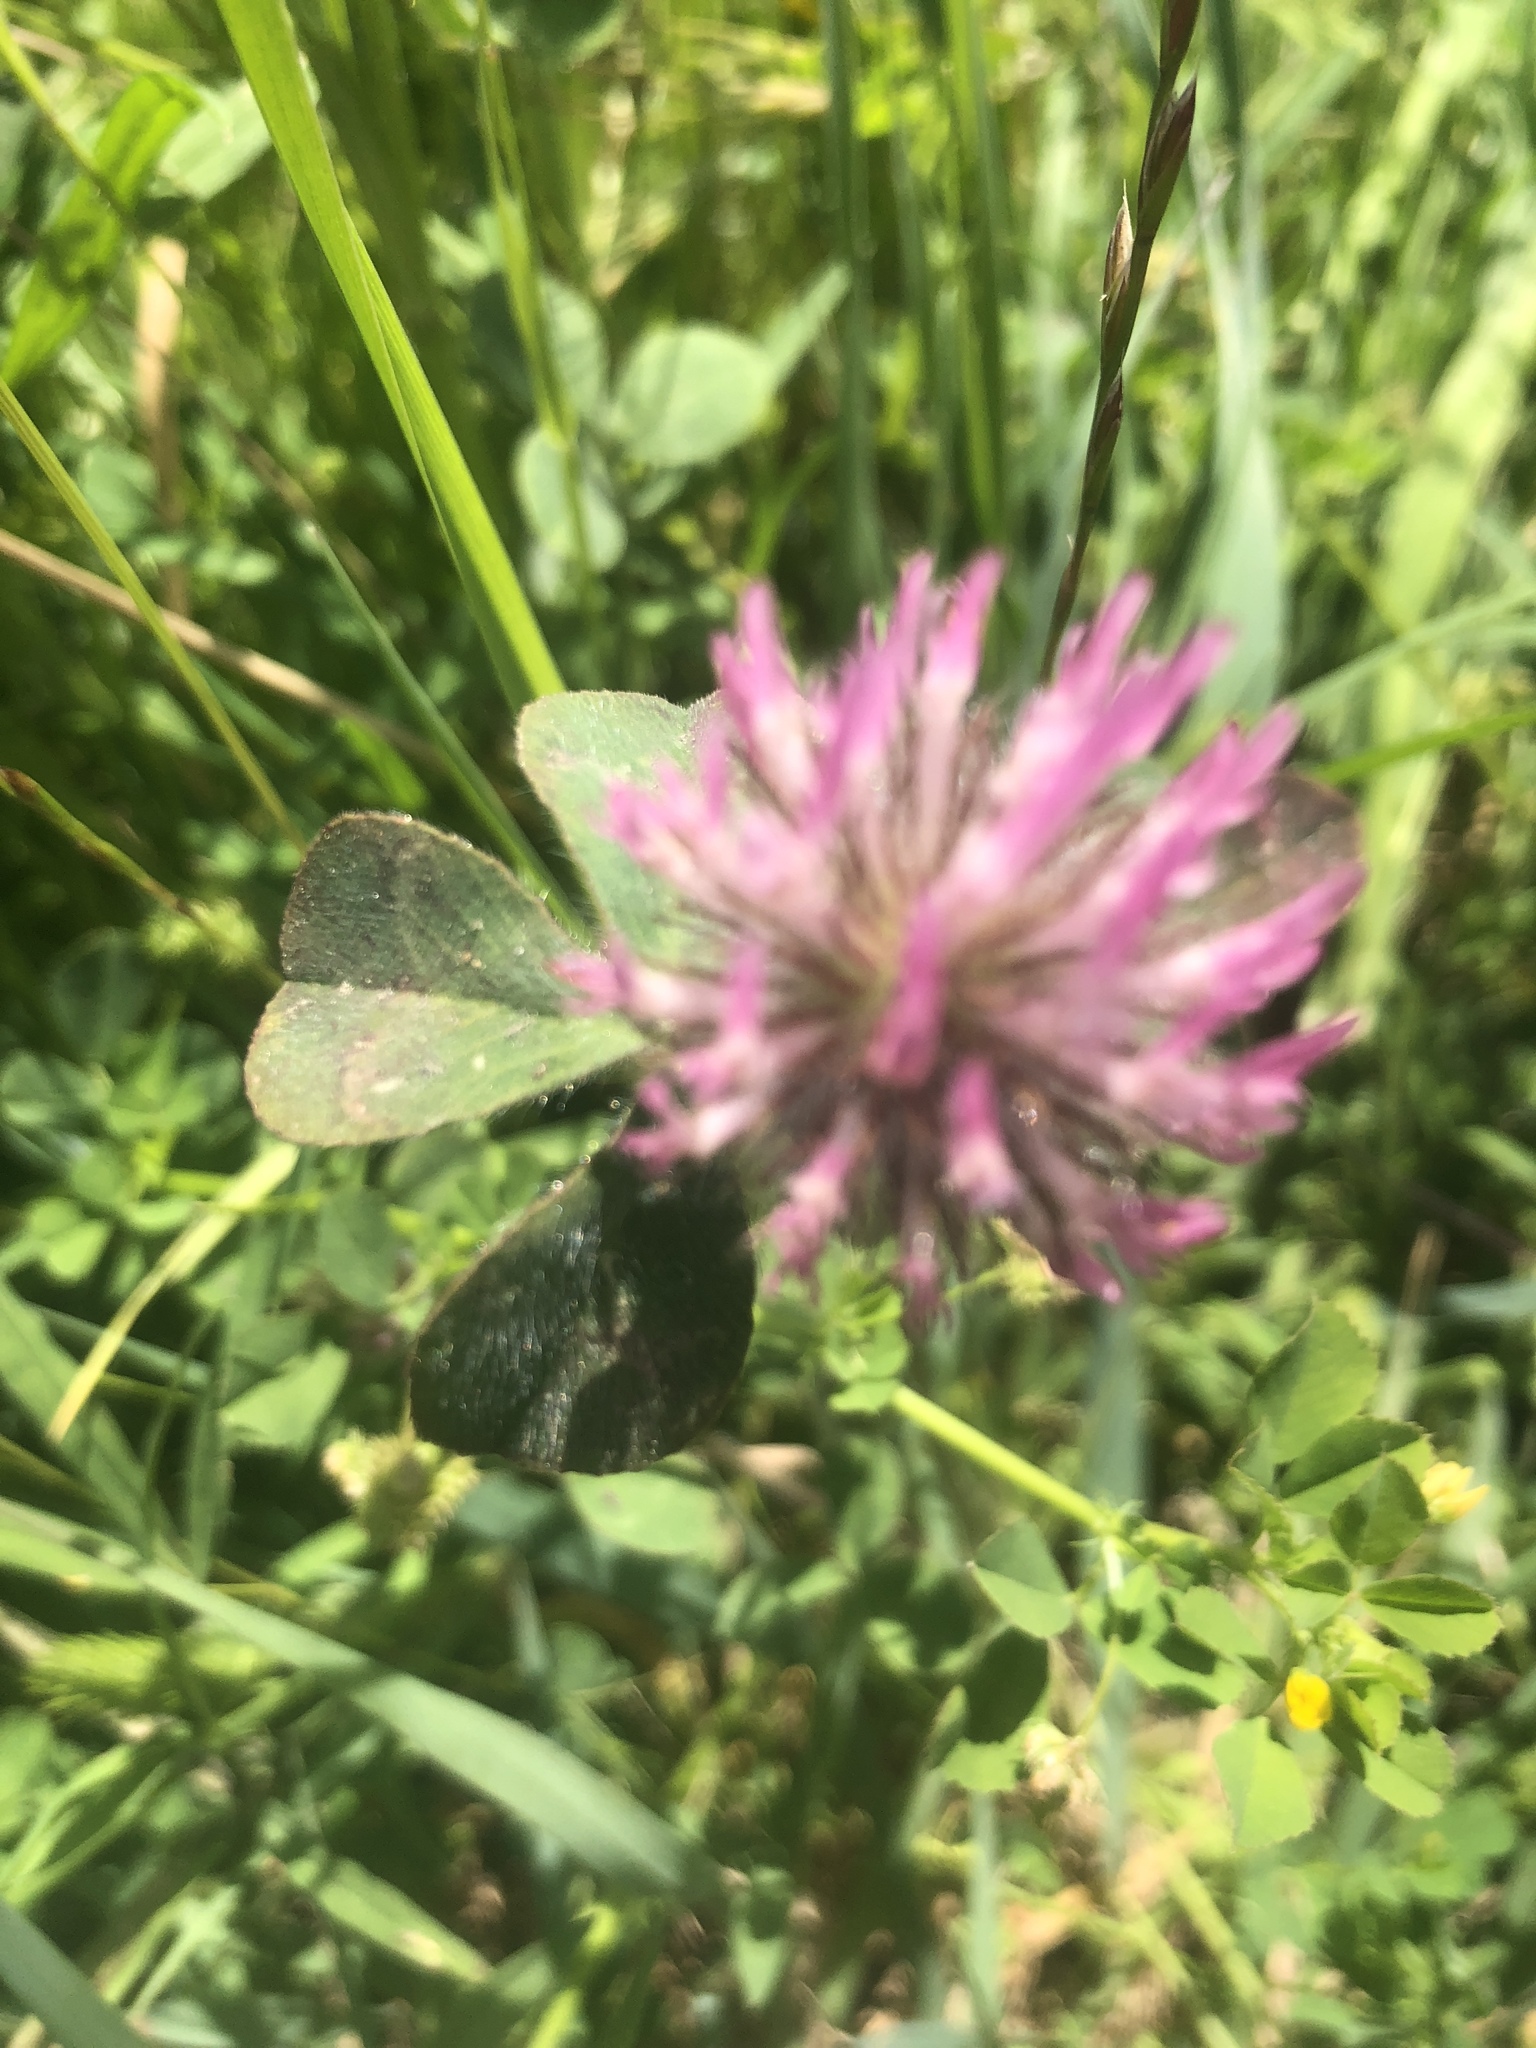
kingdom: Plantae
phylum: Tracheophyta
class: Magnoliopsida
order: Fabales
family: Fabaceae
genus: Trifolium
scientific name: Trifolium hirtum
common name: Rose clover
